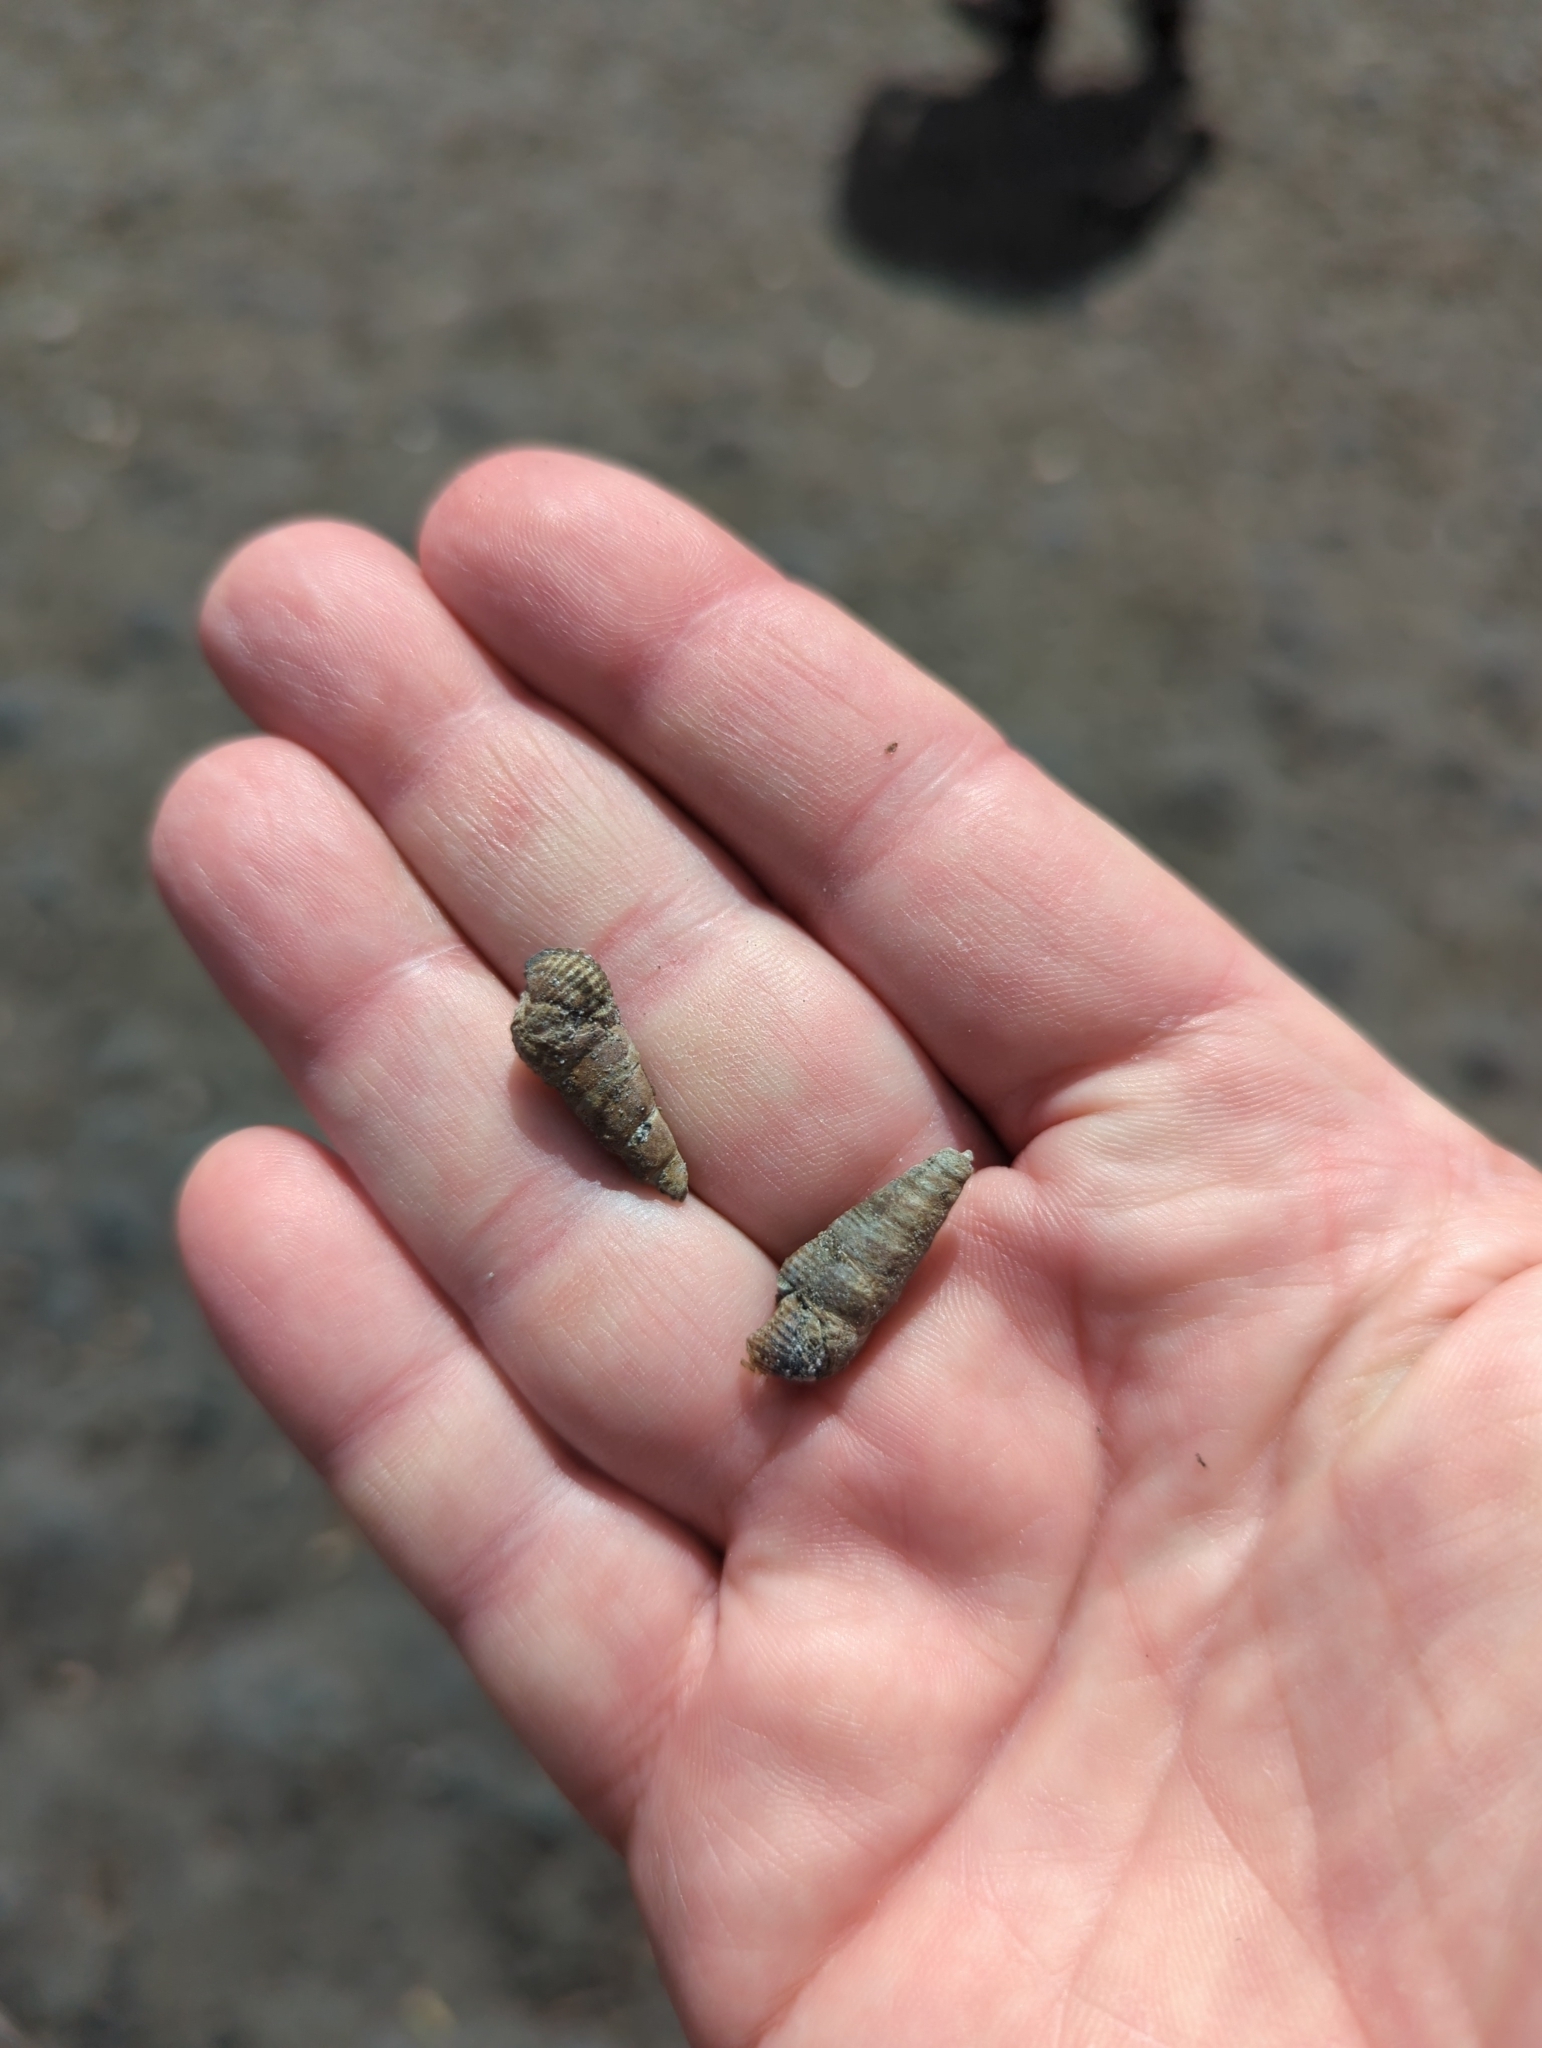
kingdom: Animalia
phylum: Mollusca
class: Gastropoda
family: Batillariidae
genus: Batillaria
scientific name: Batillaria attramentaria
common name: Japanese false cerith
